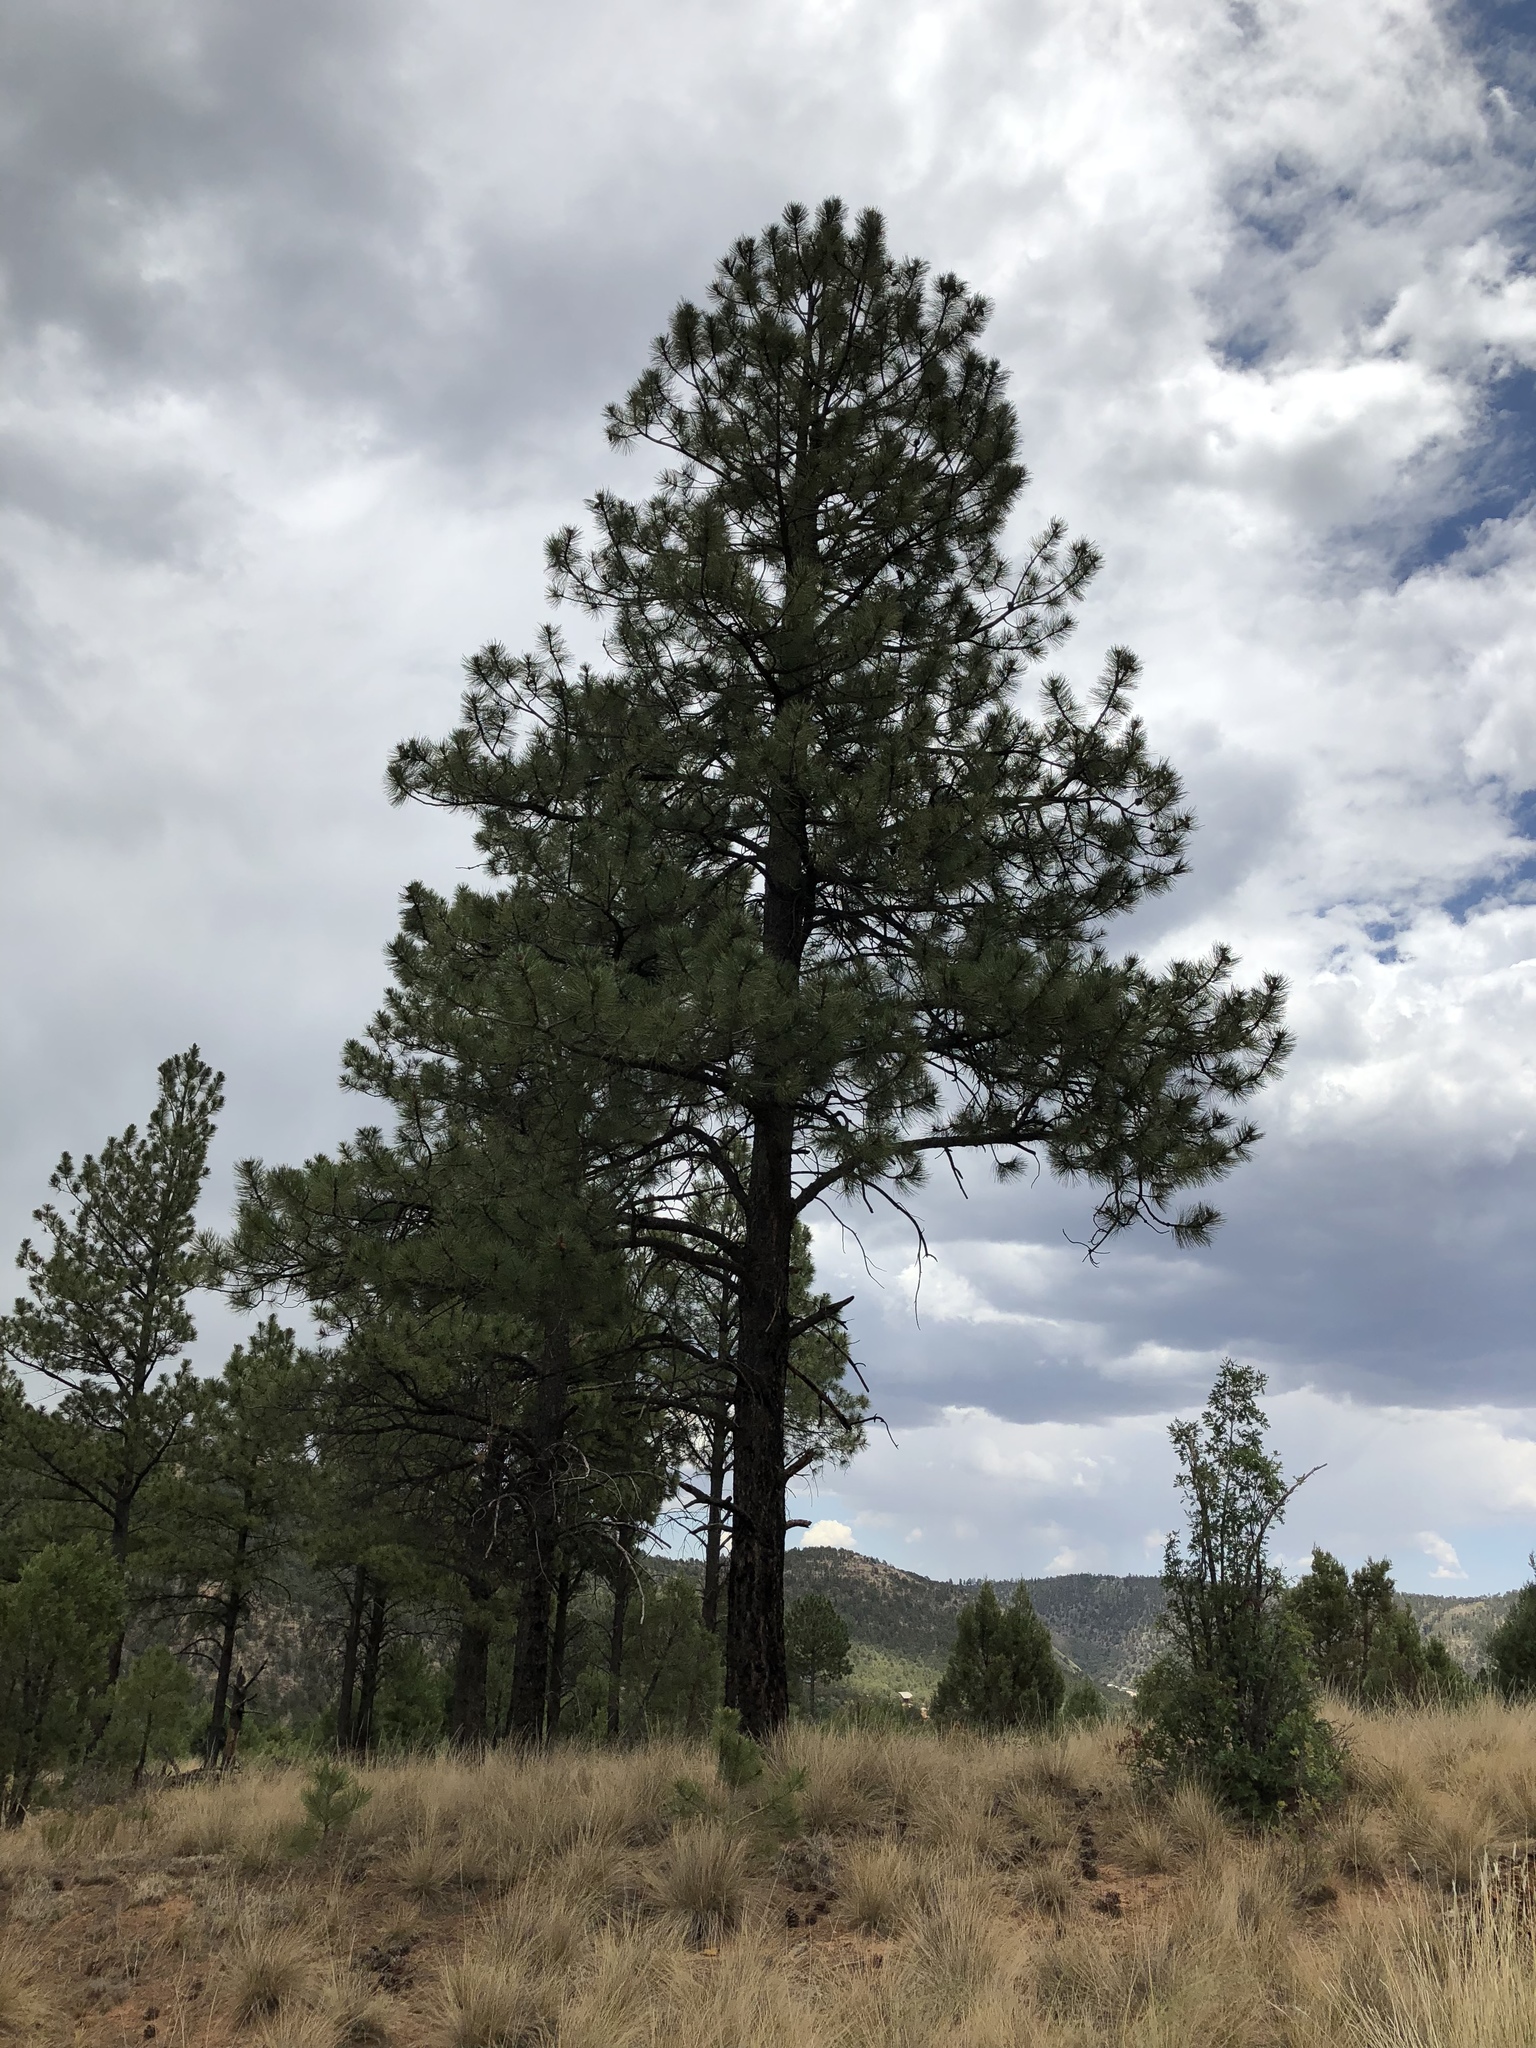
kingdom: Plantae
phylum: Tracheophyta
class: Pinopsida
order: Pinales
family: Pinaceae
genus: Pinus
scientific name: Pinus ponderosa
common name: Western yellow-pine
